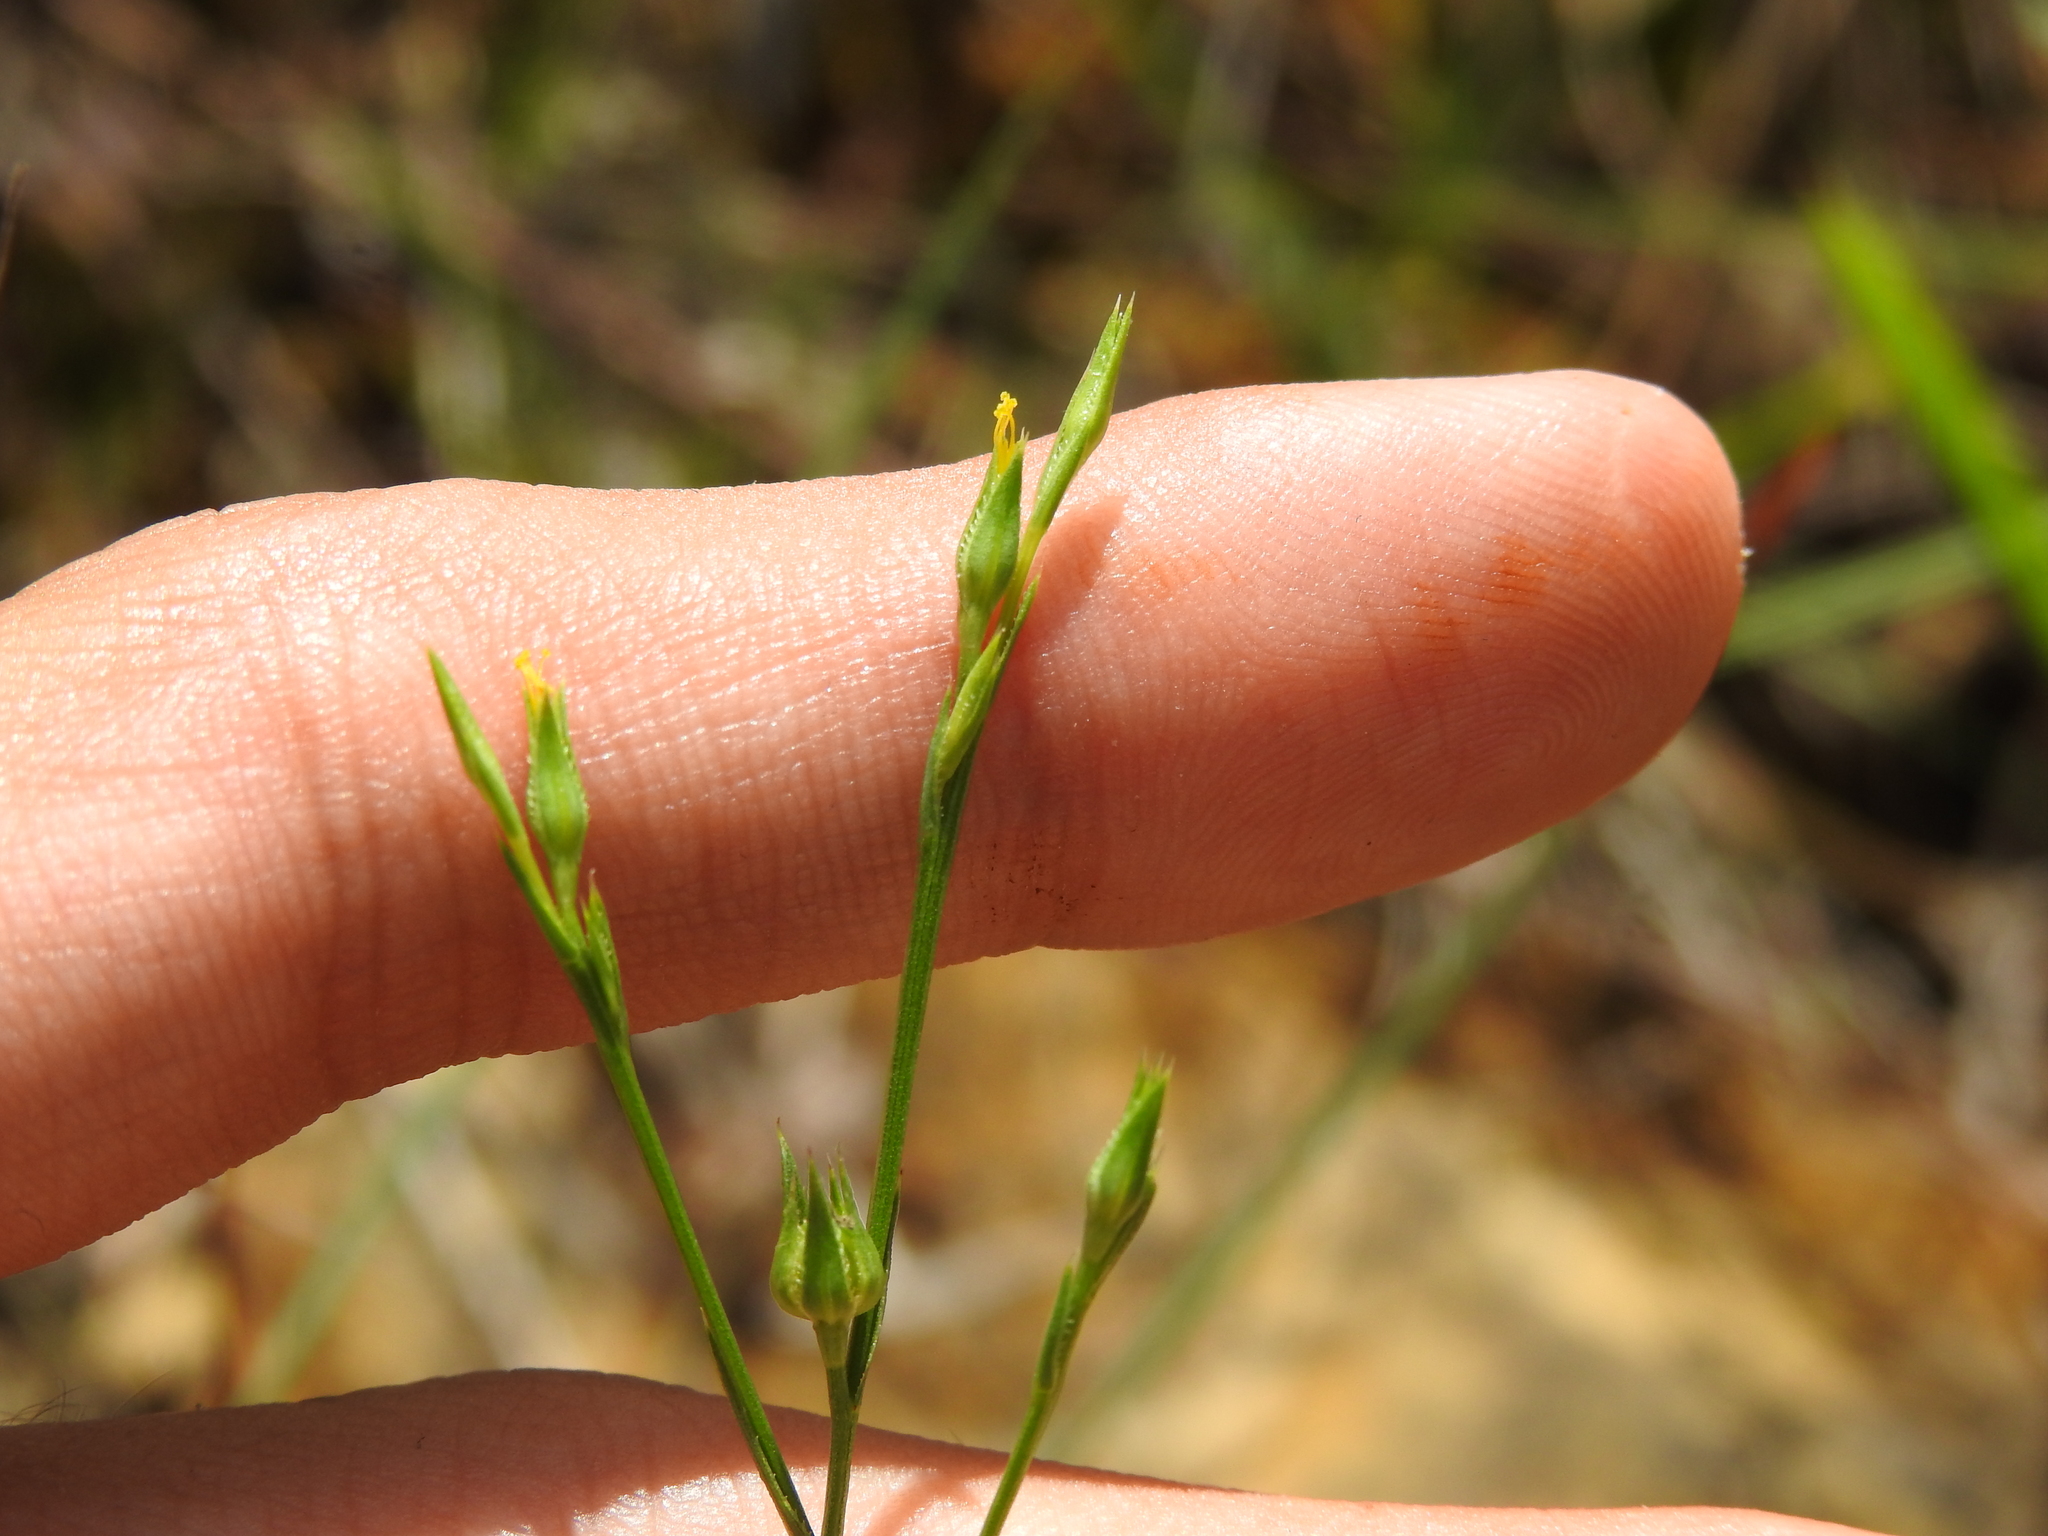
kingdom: Plantae
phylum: Tracheophyta
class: Magnoliopsida
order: Malpighiales
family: Linaceae
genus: Linum
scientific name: Linum sulcatum
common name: Grooved flax
